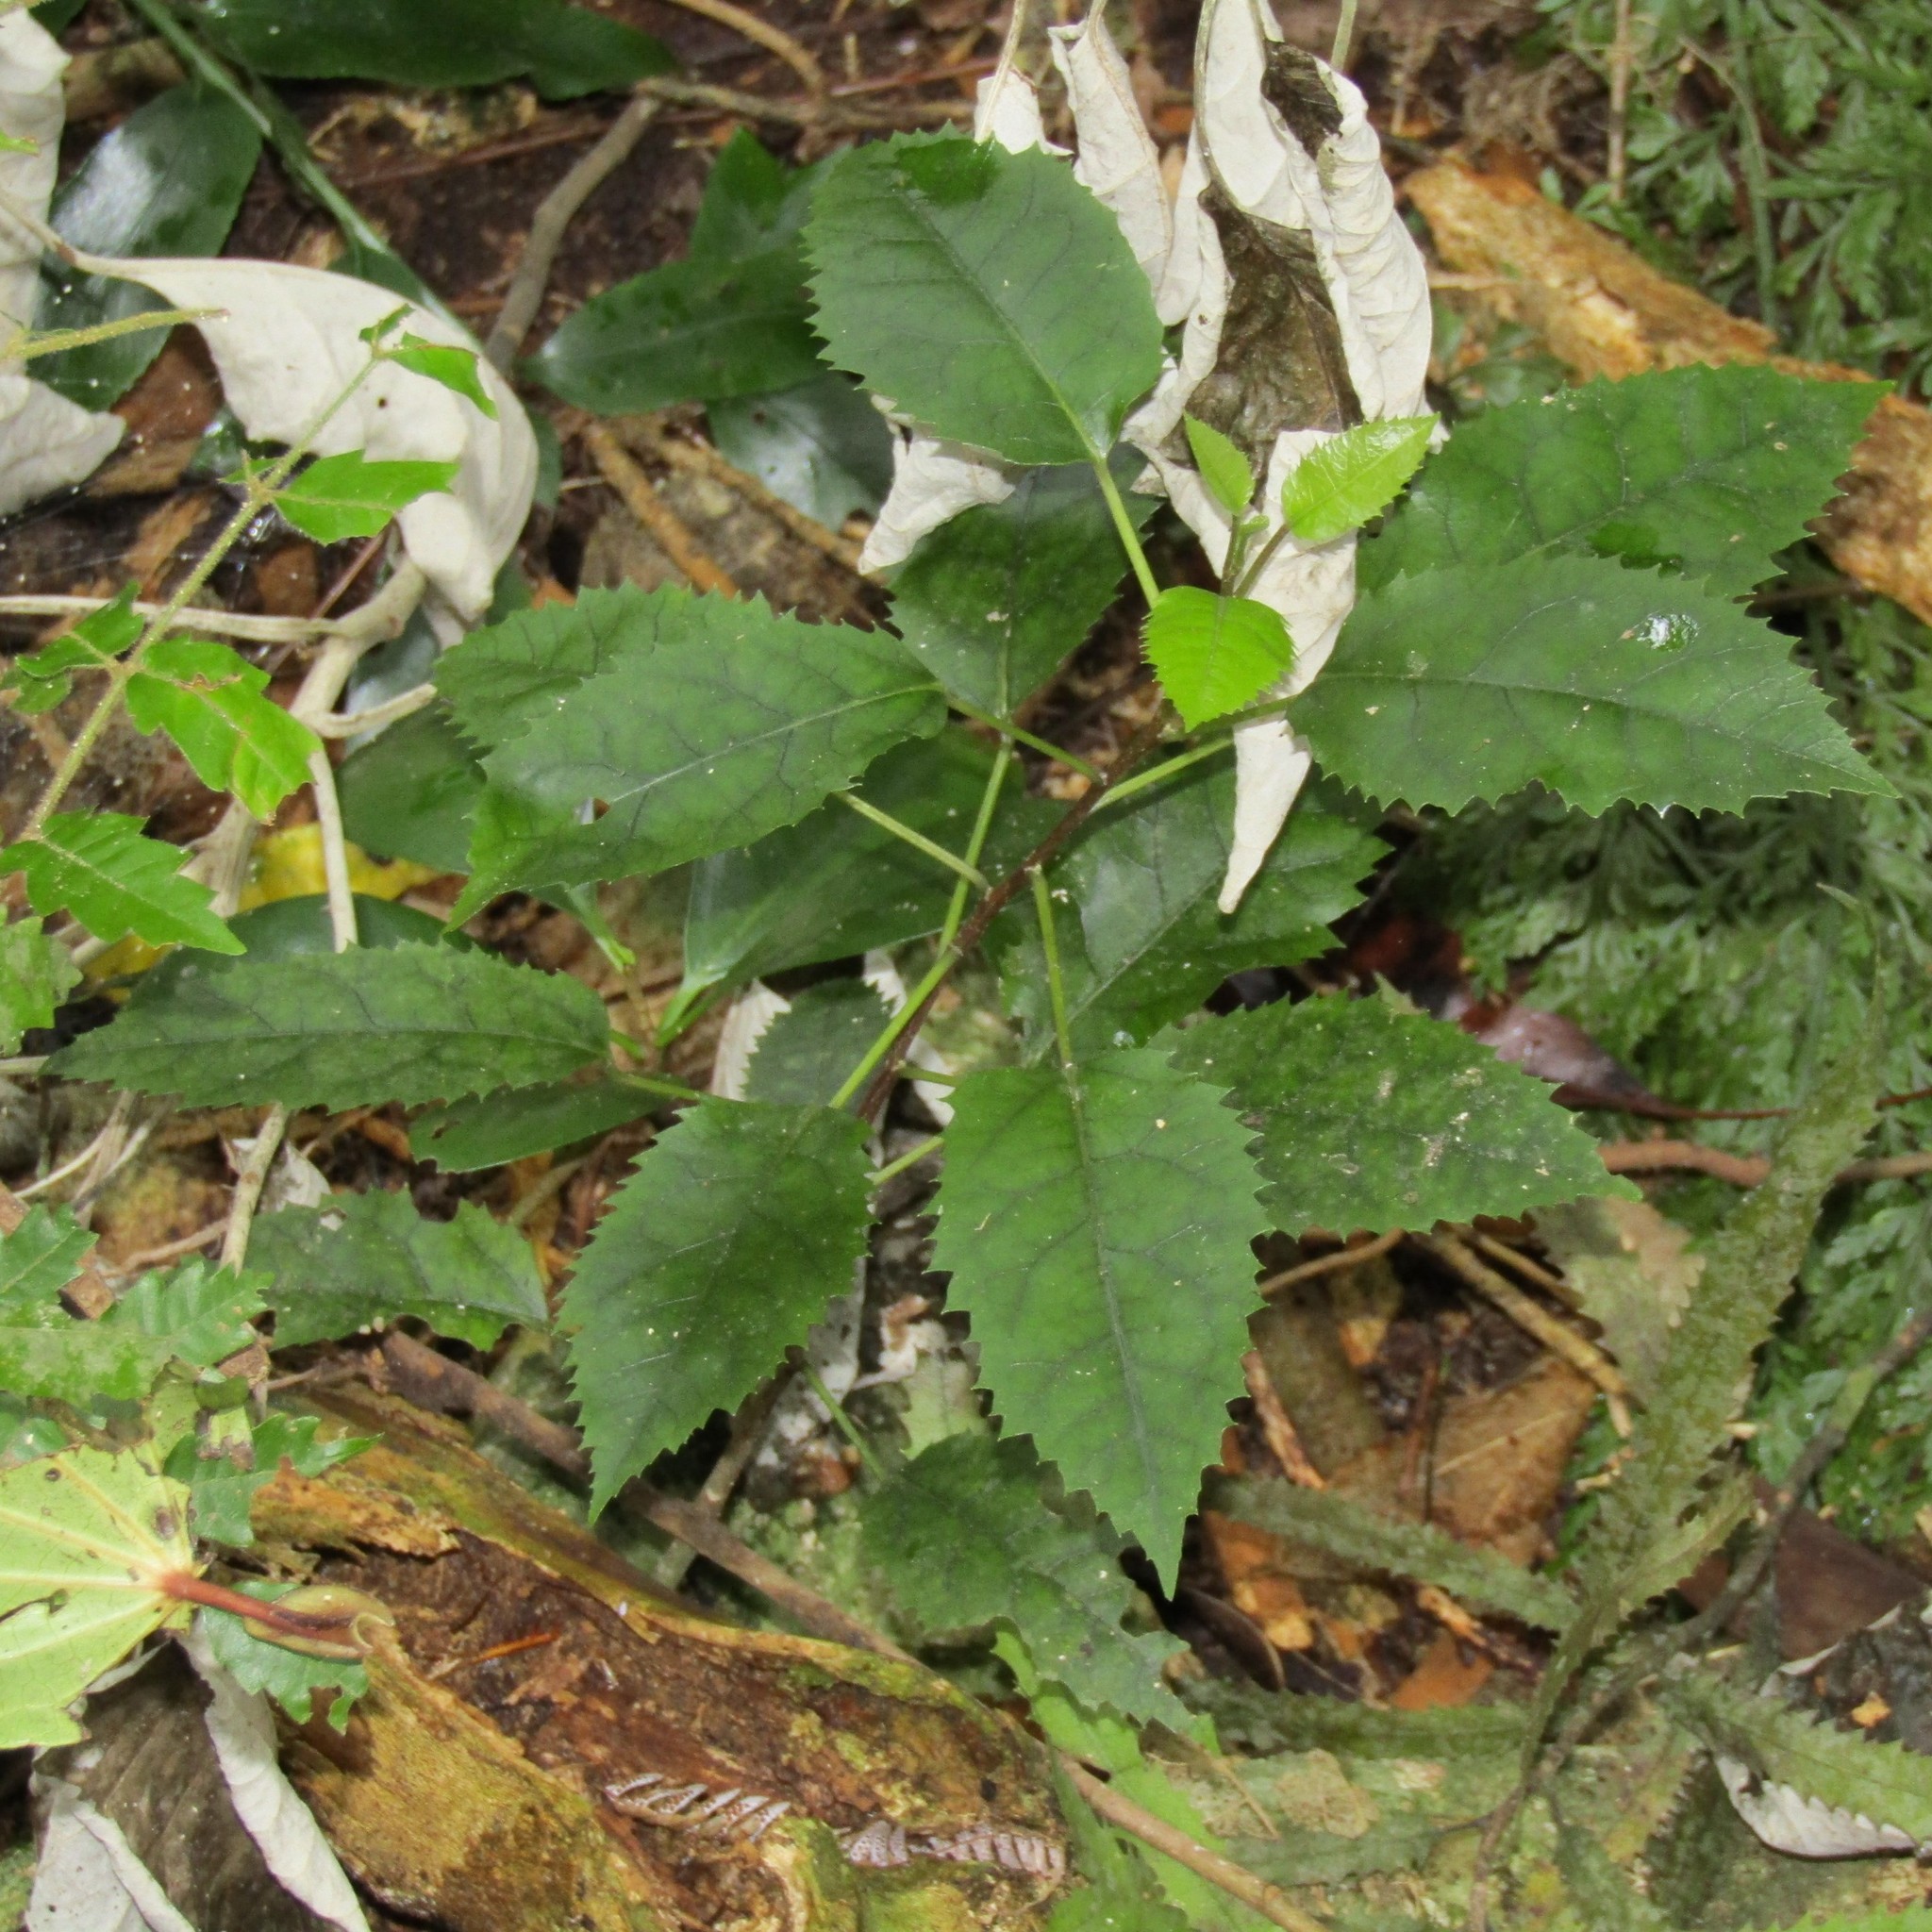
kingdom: Plantae
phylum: Tracheophyta
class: Magnoliopsida
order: Malvales
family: Malvaceae
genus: Hoheria
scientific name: Hoheria populnea
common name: Lacebark
